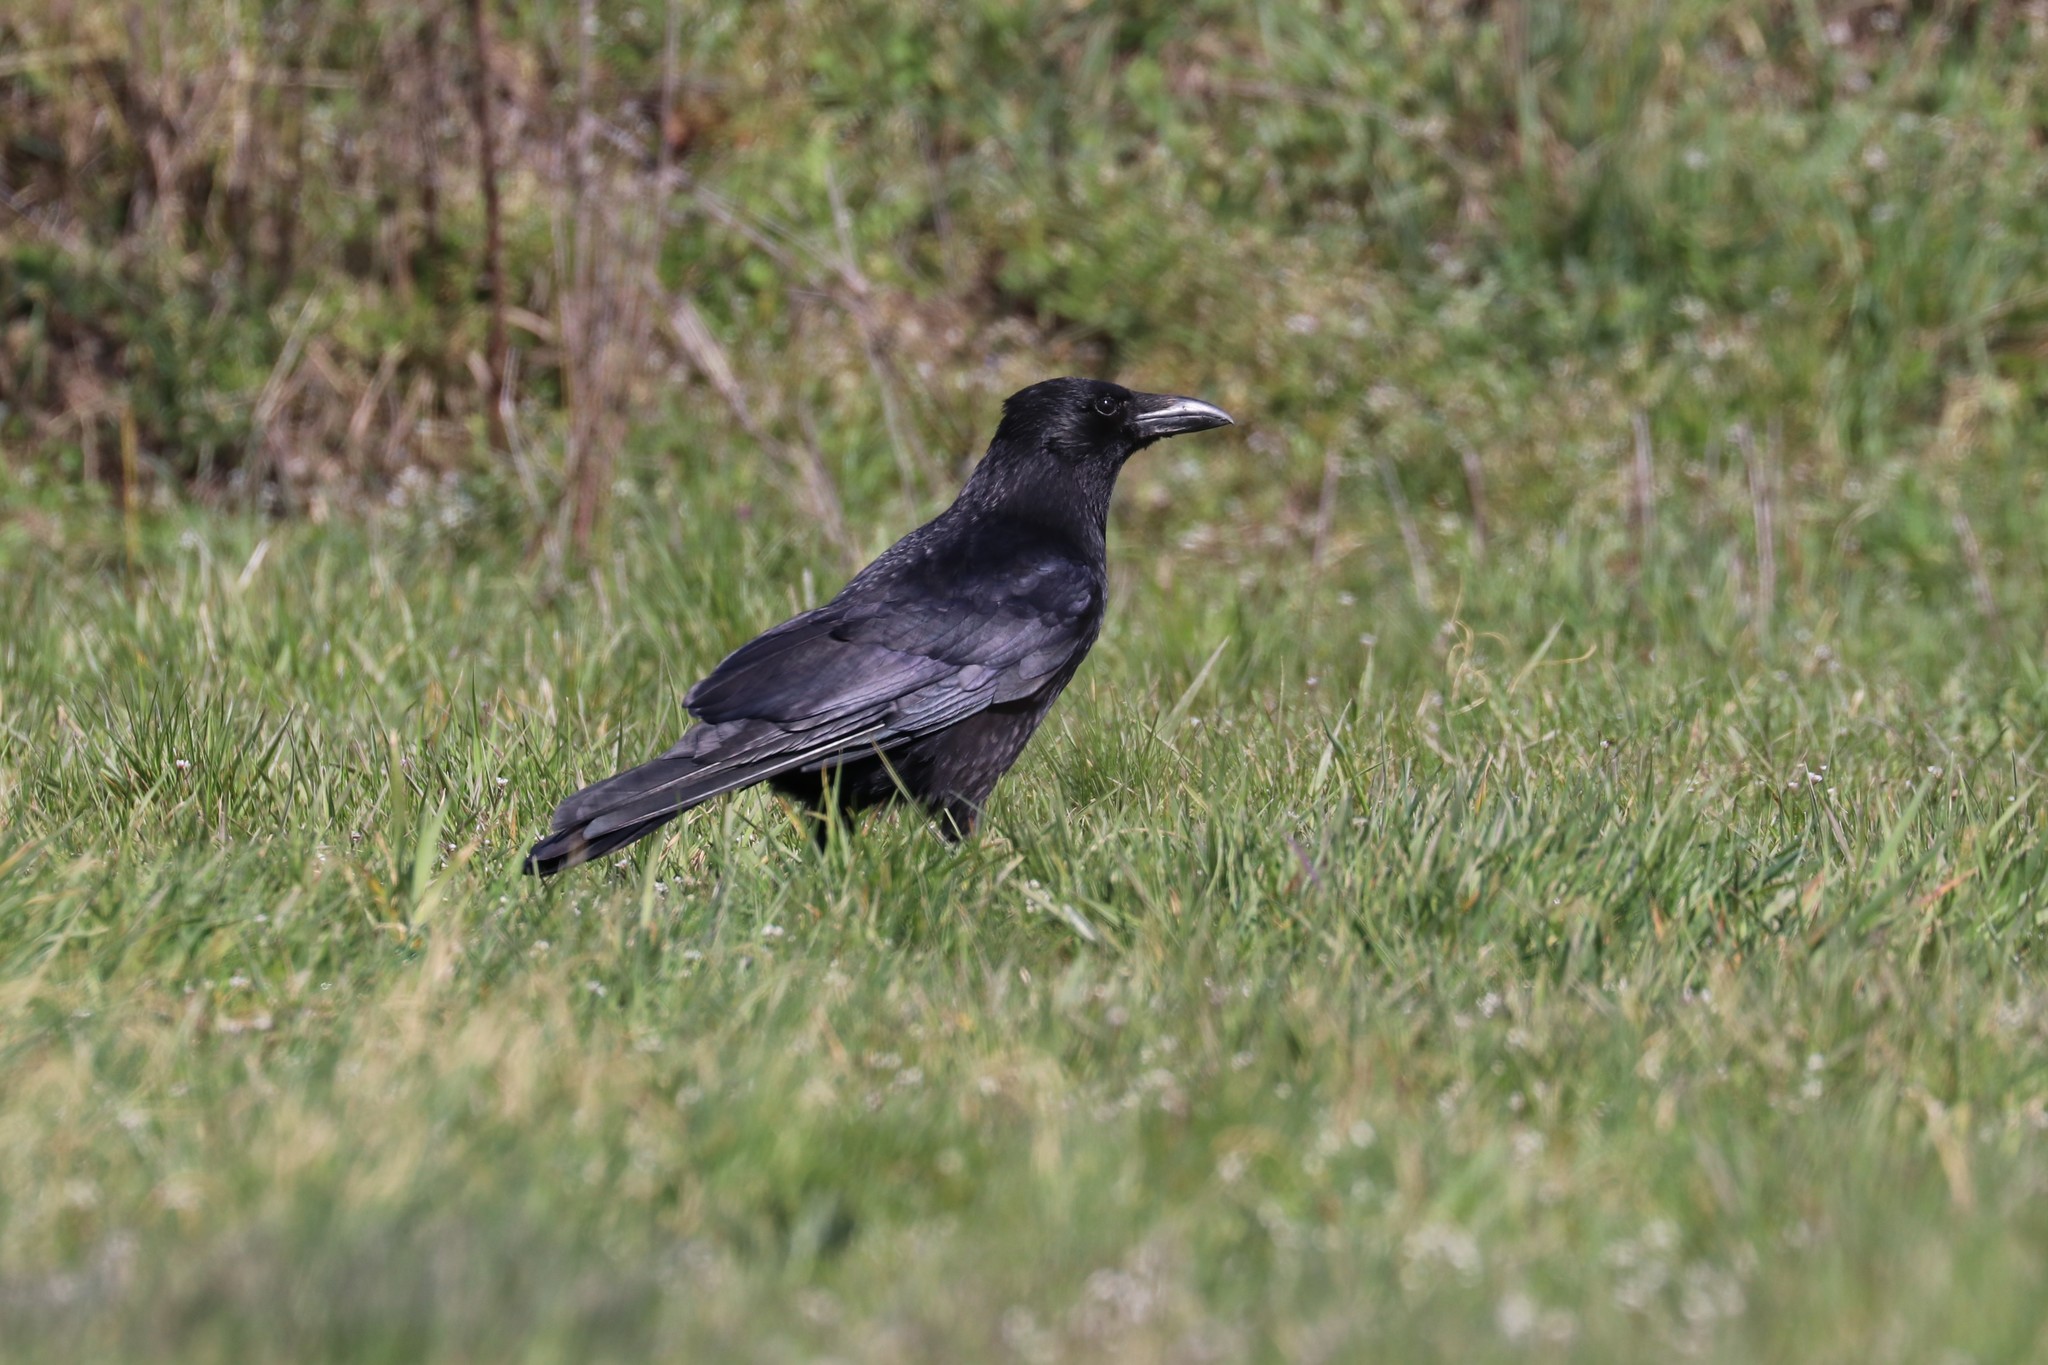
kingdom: Animalia
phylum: Chordata
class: Aves
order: Passeriformes
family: Corvidae
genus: Corvus
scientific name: Corvus corone
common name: Carrion crow
